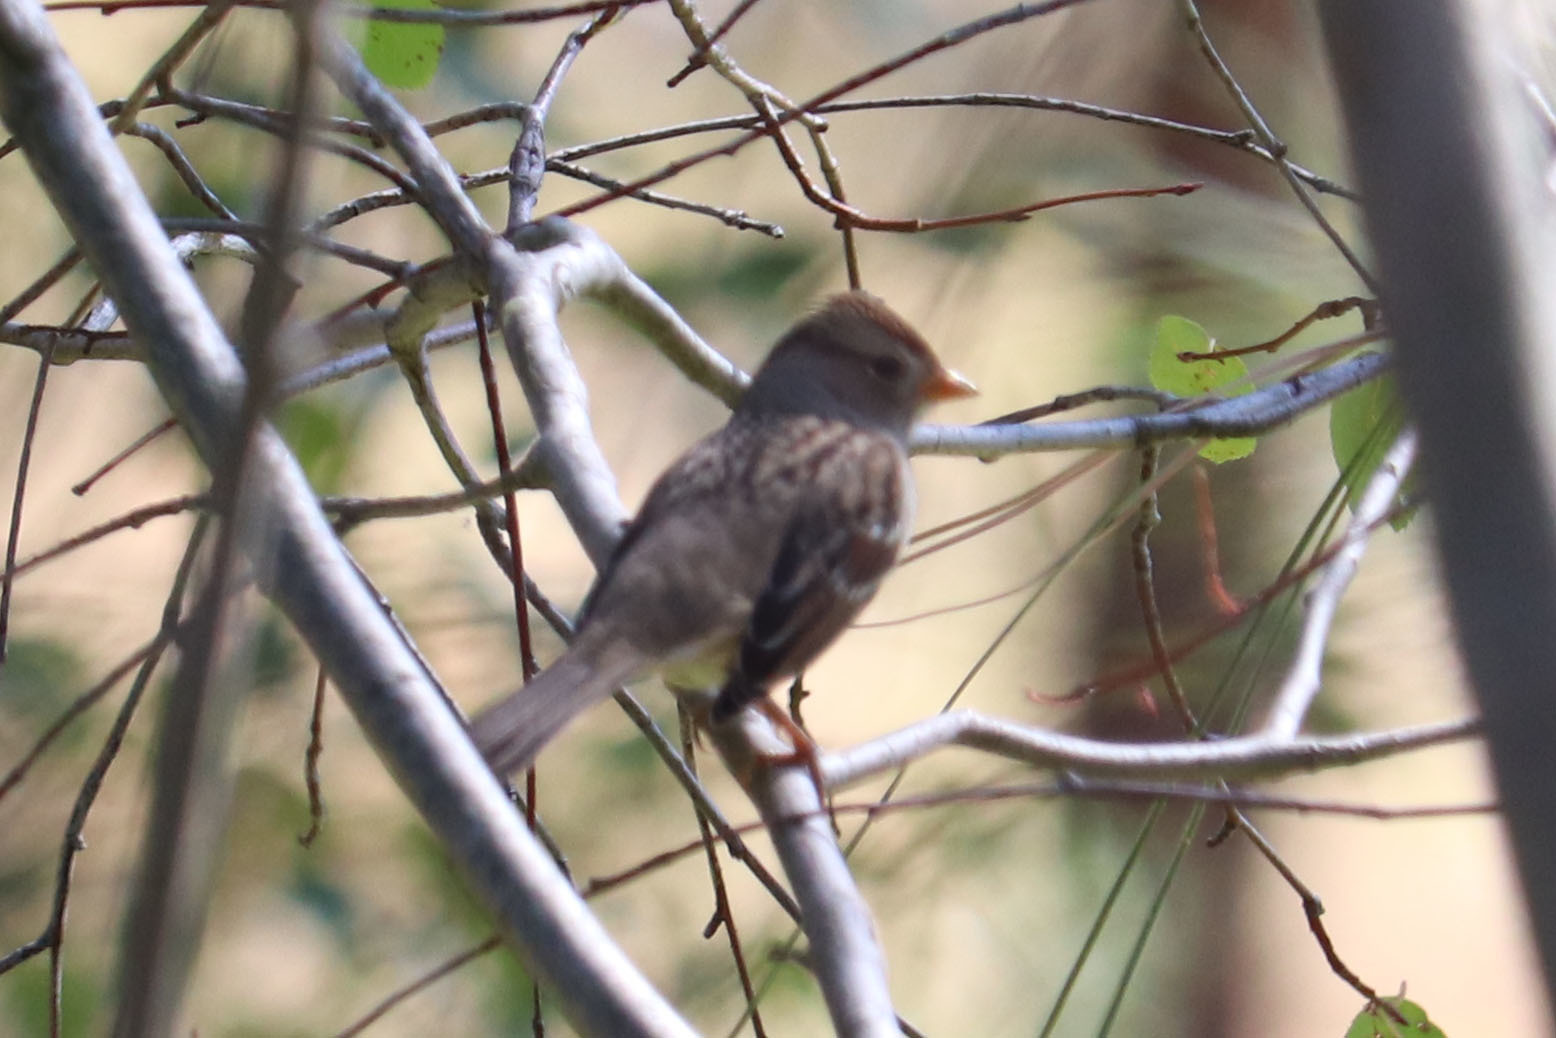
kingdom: Animalia
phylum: Chordata
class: Aves
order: Passeriformes
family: Passerellidae
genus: Zonotrichia
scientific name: Zonotrichia leucophrys
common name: White-crowned sparrow
